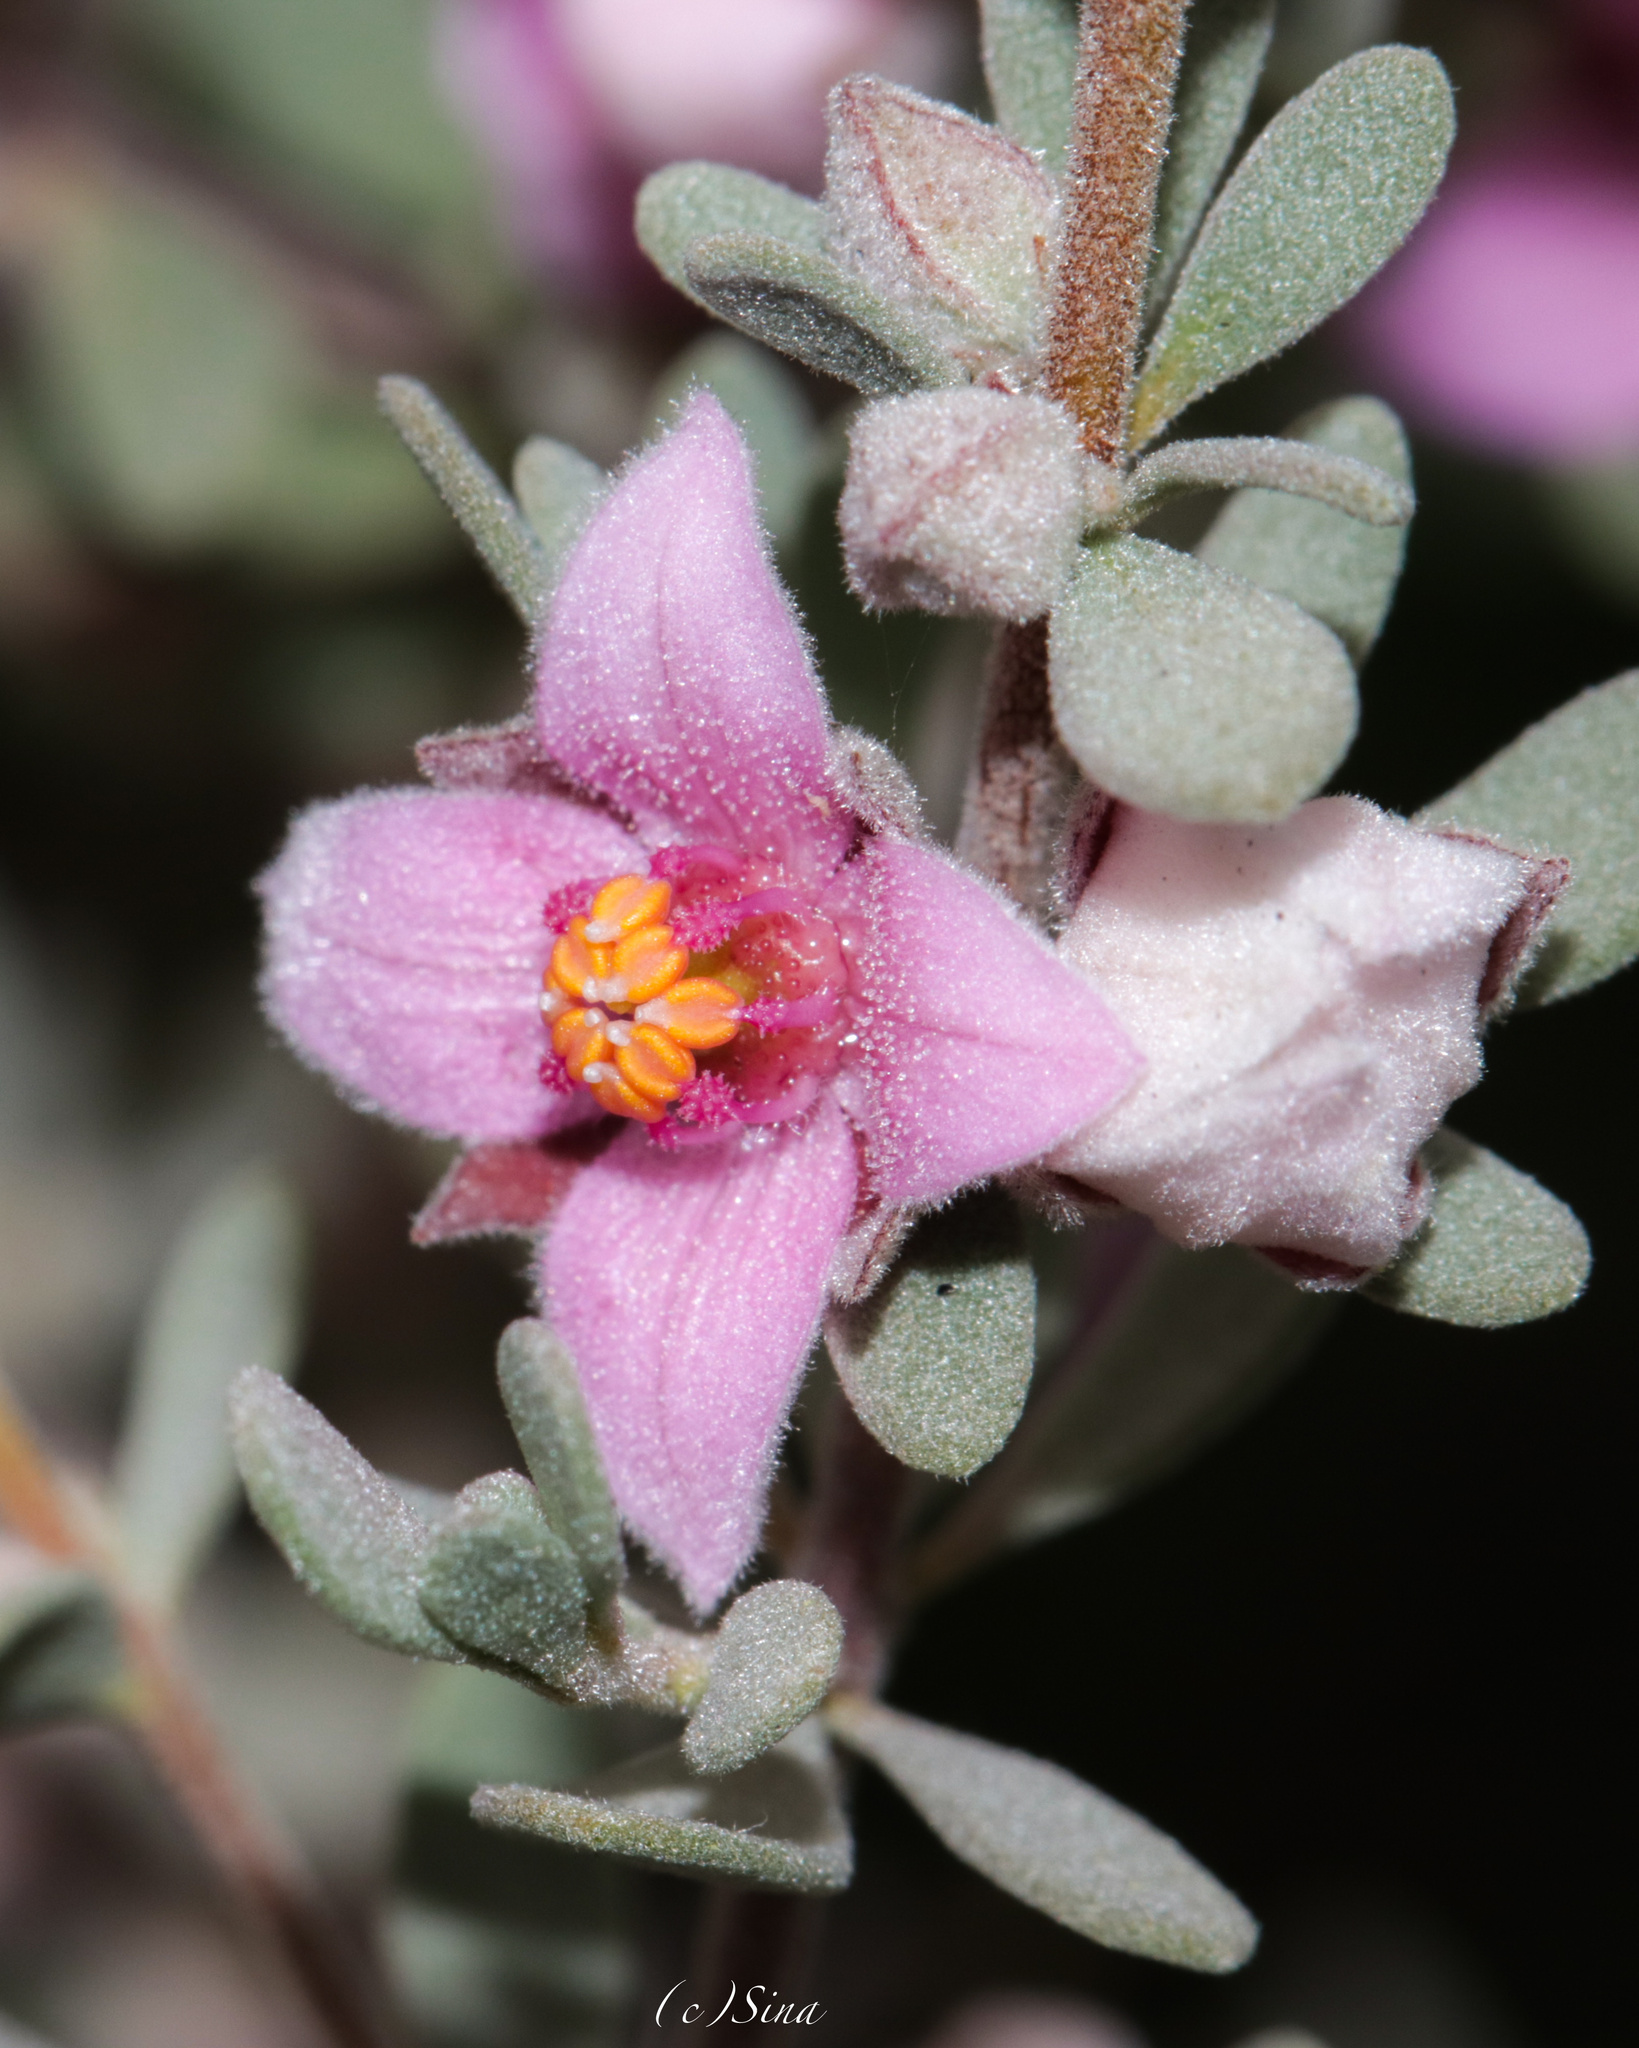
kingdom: Plantae
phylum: Tracheophyta
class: Magnoliopsida
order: Sapindales
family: Rutaceae
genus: Boronia
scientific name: Boronia ternata
